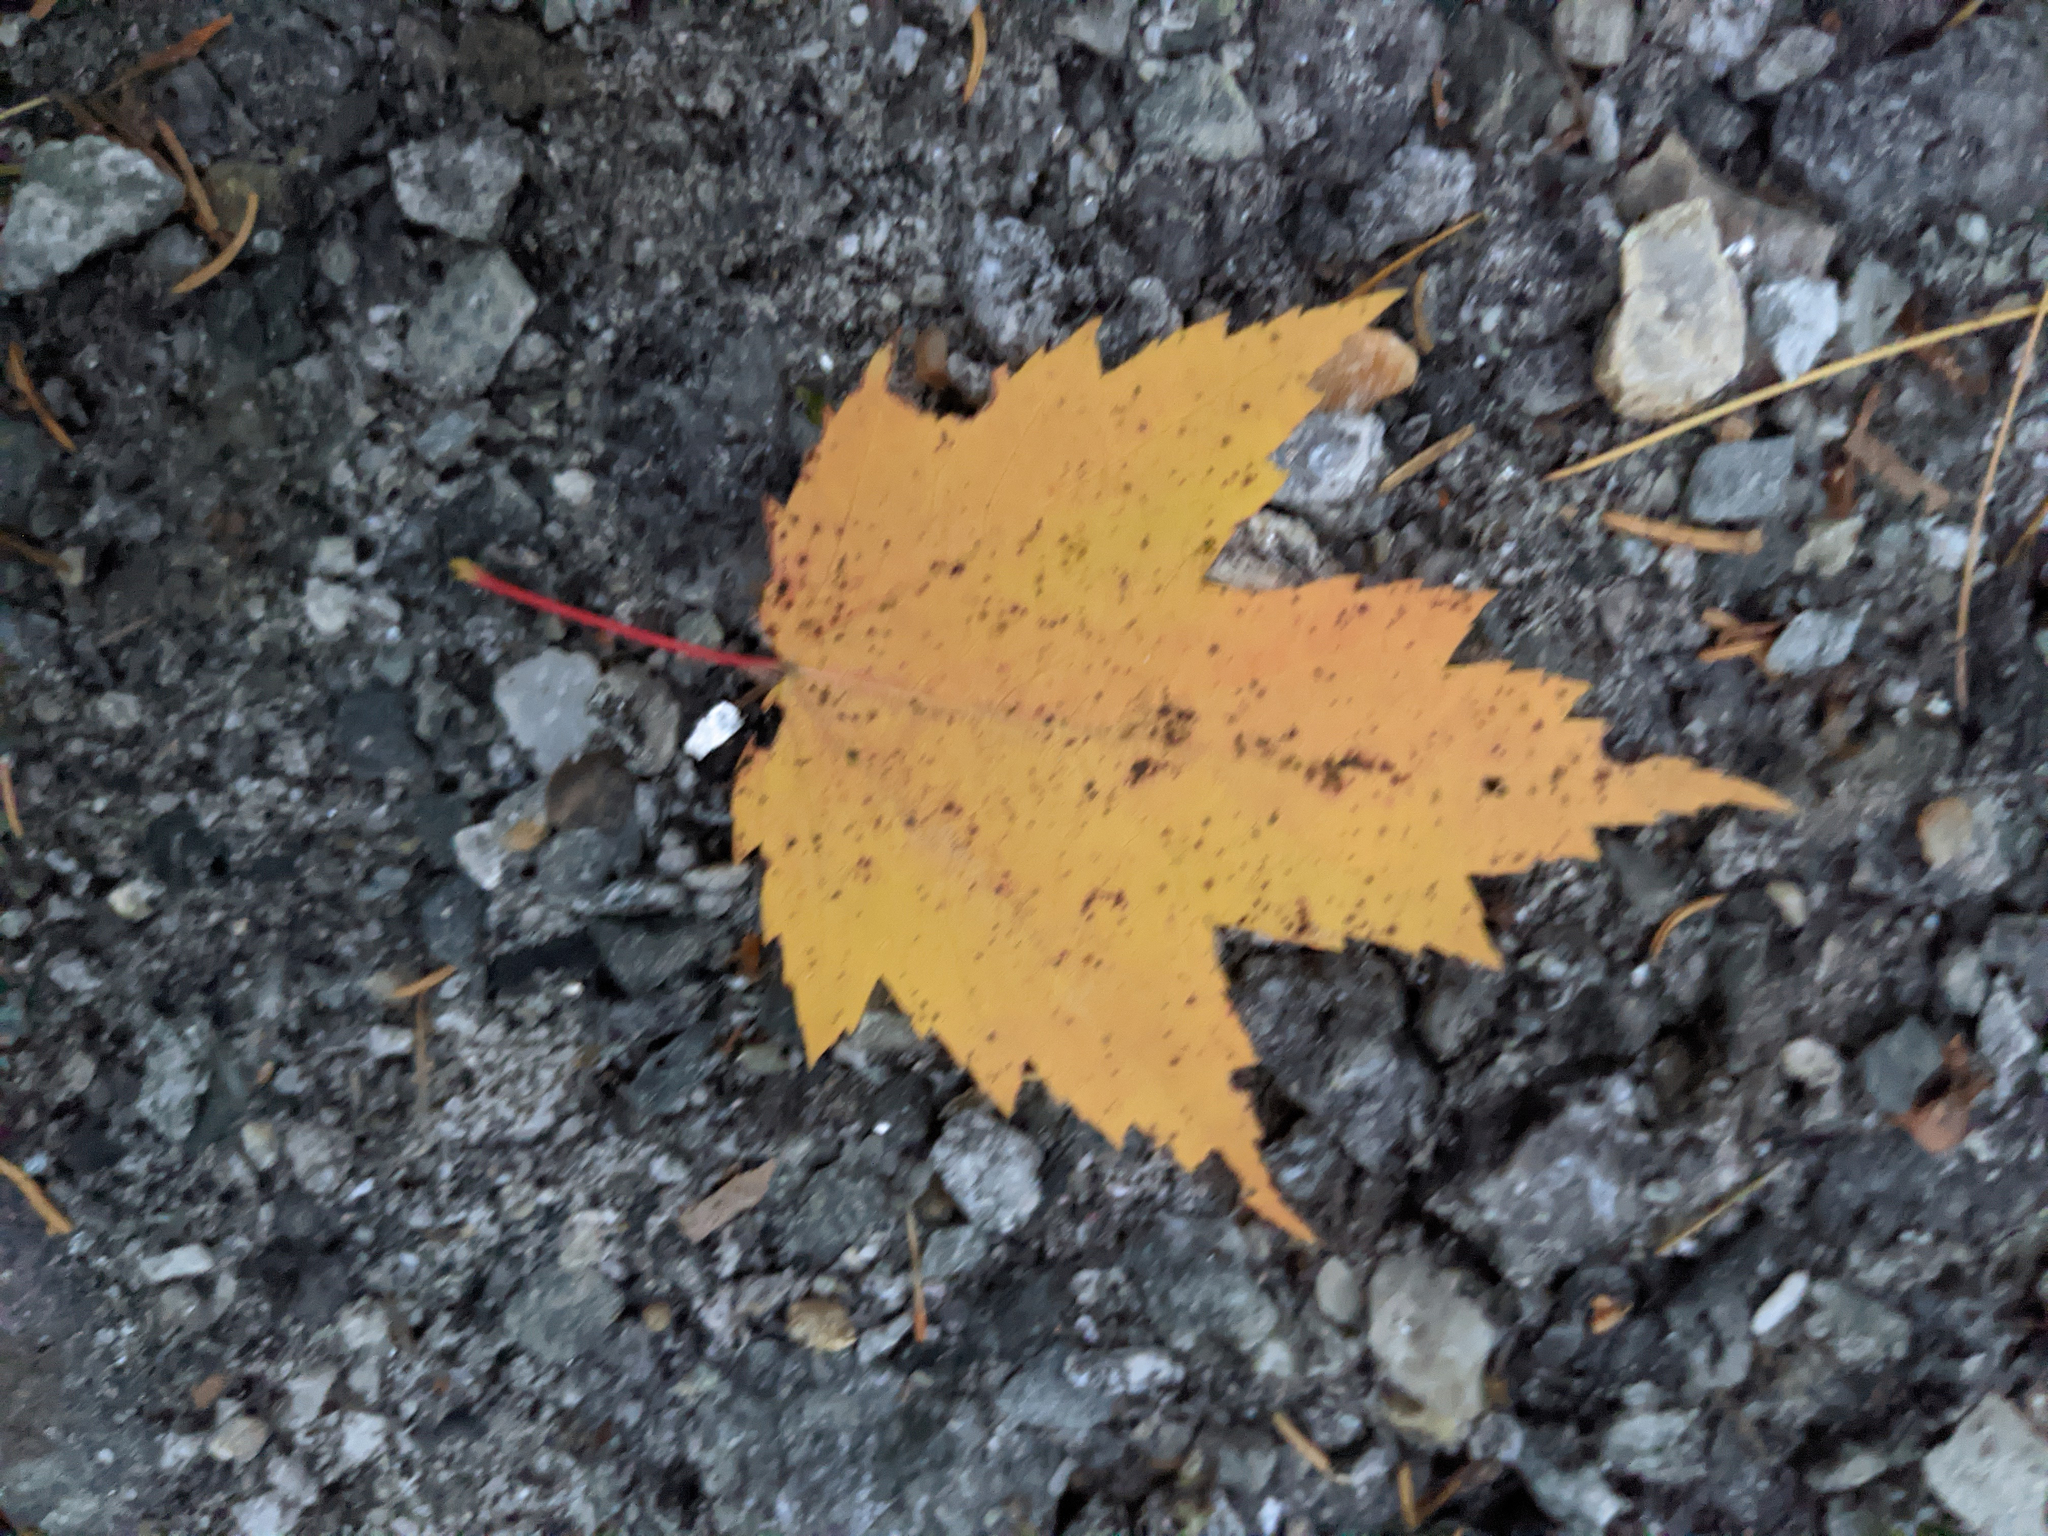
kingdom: Plantae
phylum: Tracheophyta
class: Magnoliopsida
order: Sapindales
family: Sapindaceae
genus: Acer
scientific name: Acer rubrum
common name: Red maple
